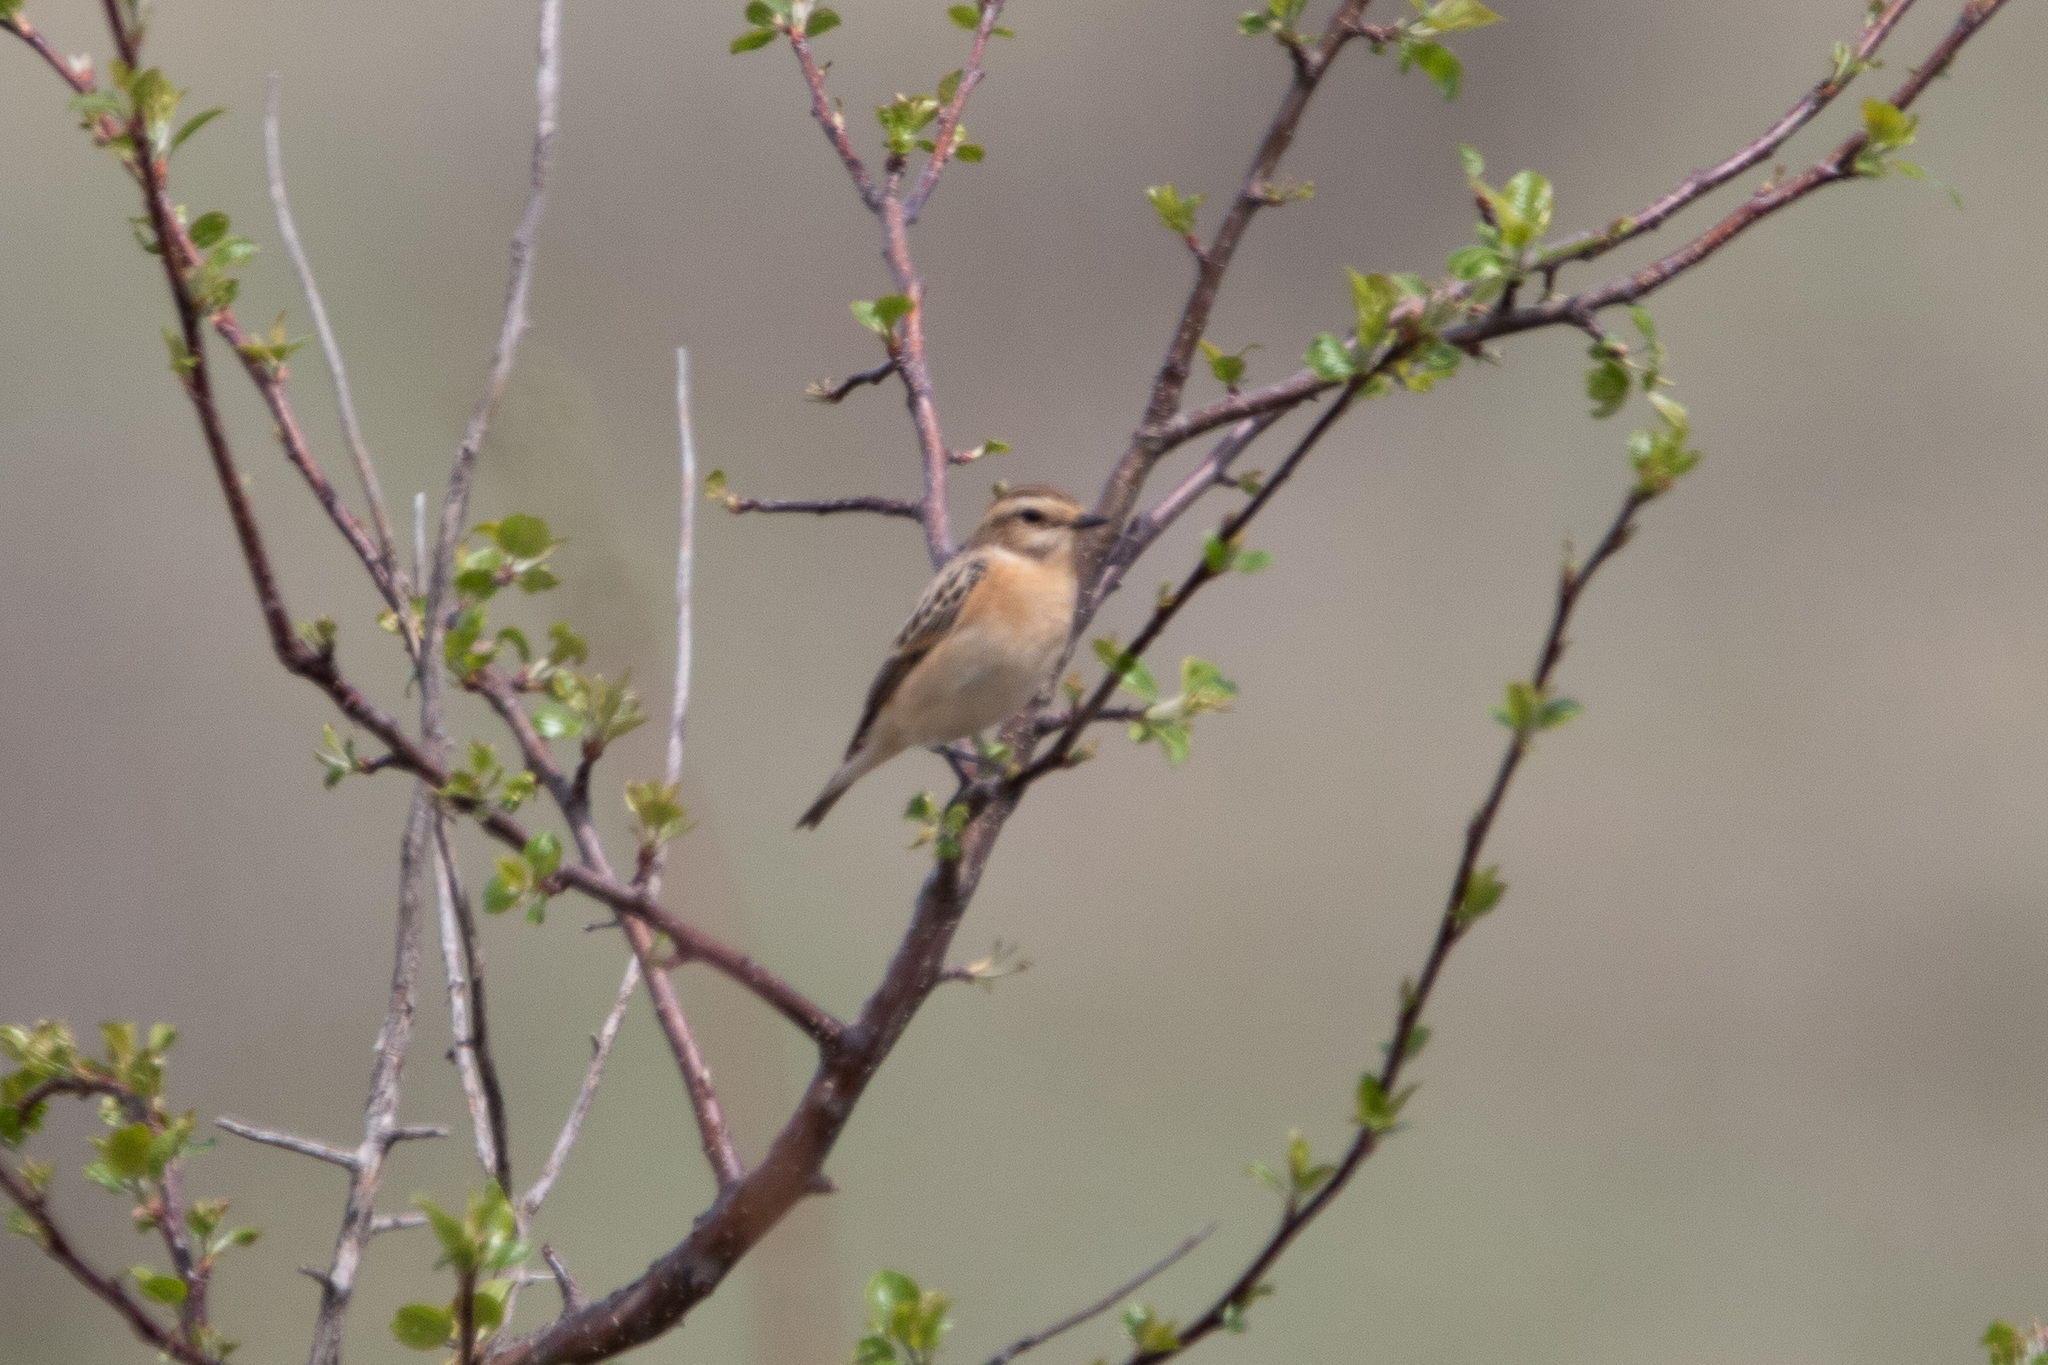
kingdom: Animalia
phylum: Chordata
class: Aves
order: Passeriformes
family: Muscicapidae
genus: Saxicola
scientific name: Saxicola rubetra
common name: Whinchat
